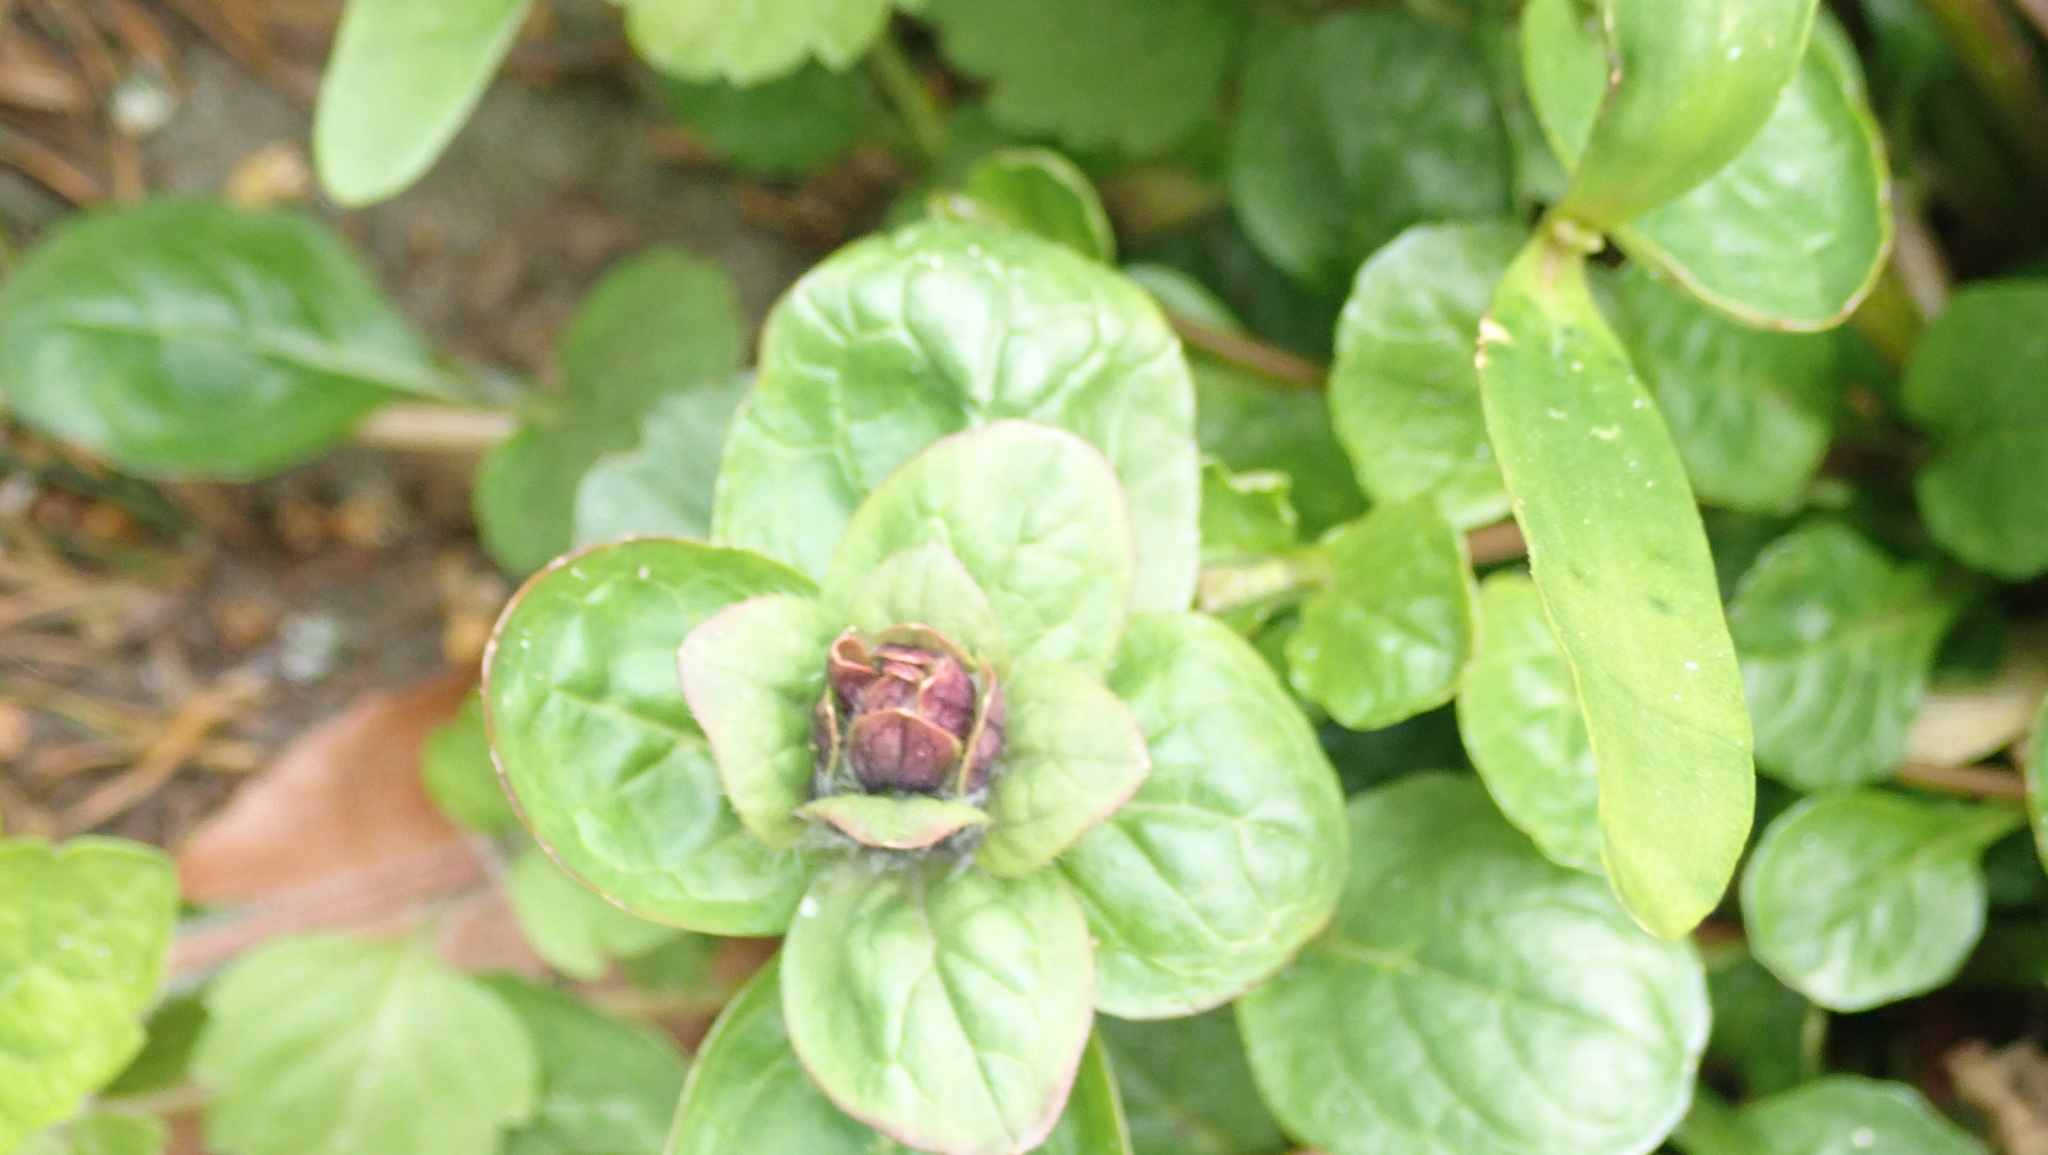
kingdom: Plantae
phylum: Tracheophyta
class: Magnoliopsida
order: Lamiales
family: Lamiaceae
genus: Ajuga
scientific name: Ajuga reptans
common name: Bugle
